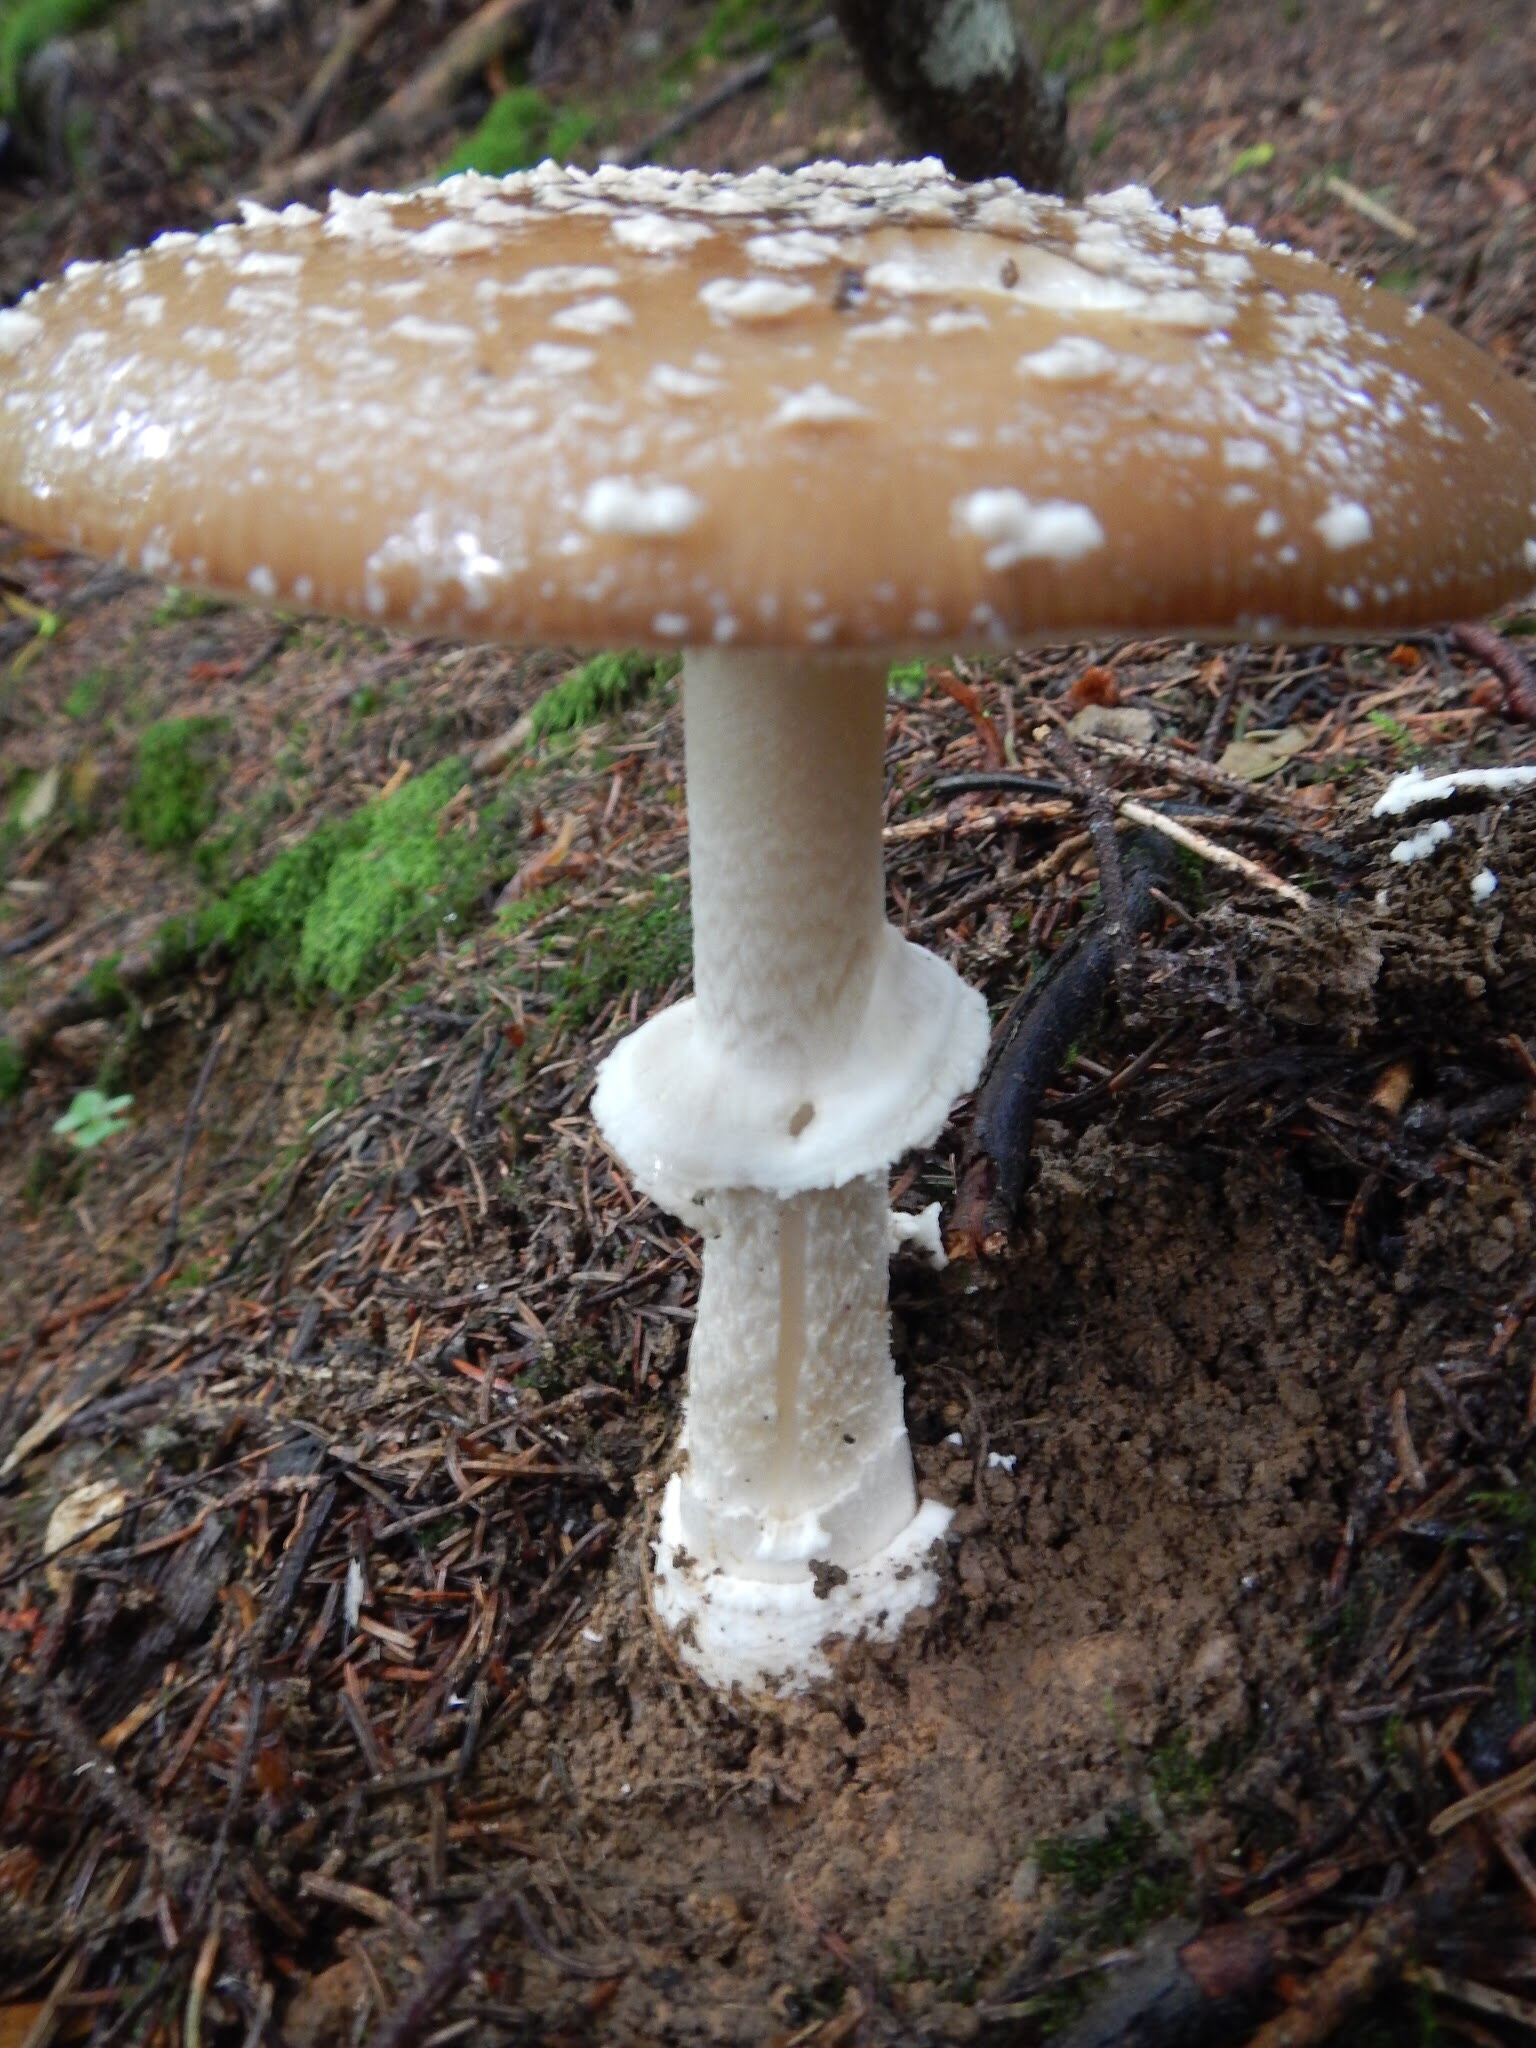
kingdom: Fungi
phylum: Basidiomycota
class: Agaricomycetes
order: Agaricales
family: Amanitaceae
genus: Amanita
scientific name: Amanita pantherina
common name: Panthercap
